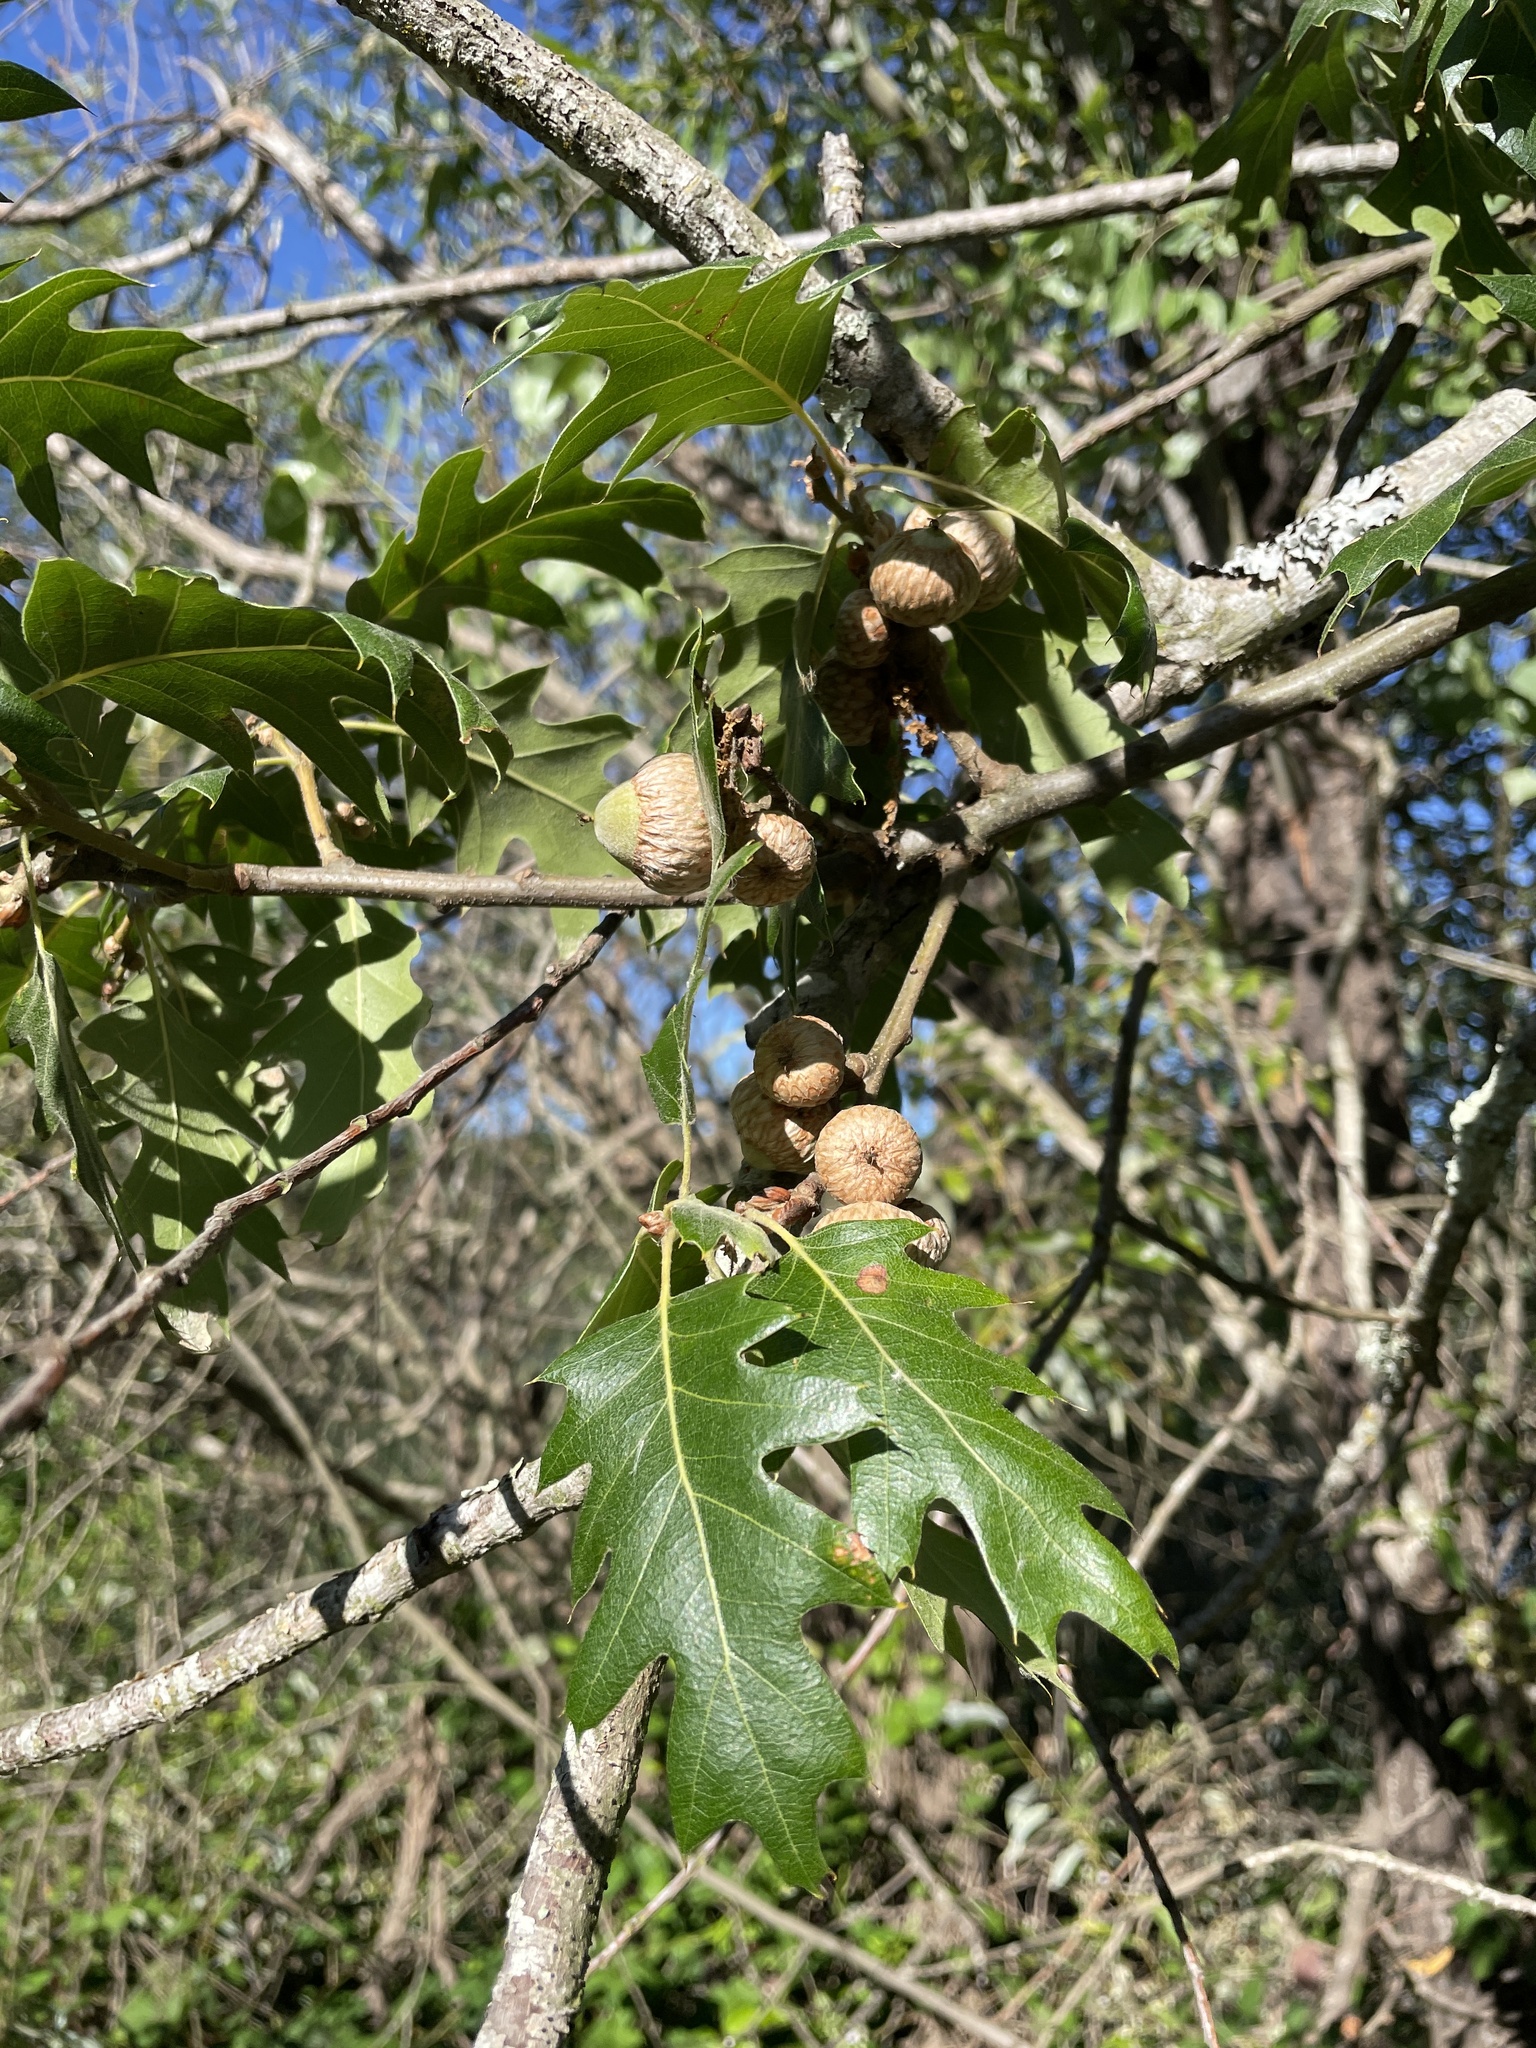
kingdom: Plantae
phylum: Tracheophyta
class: Magnoliopsida
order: Fagales
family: Fagaceae
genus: Quercus
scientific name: Quercus kelloggii
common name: California black oak
